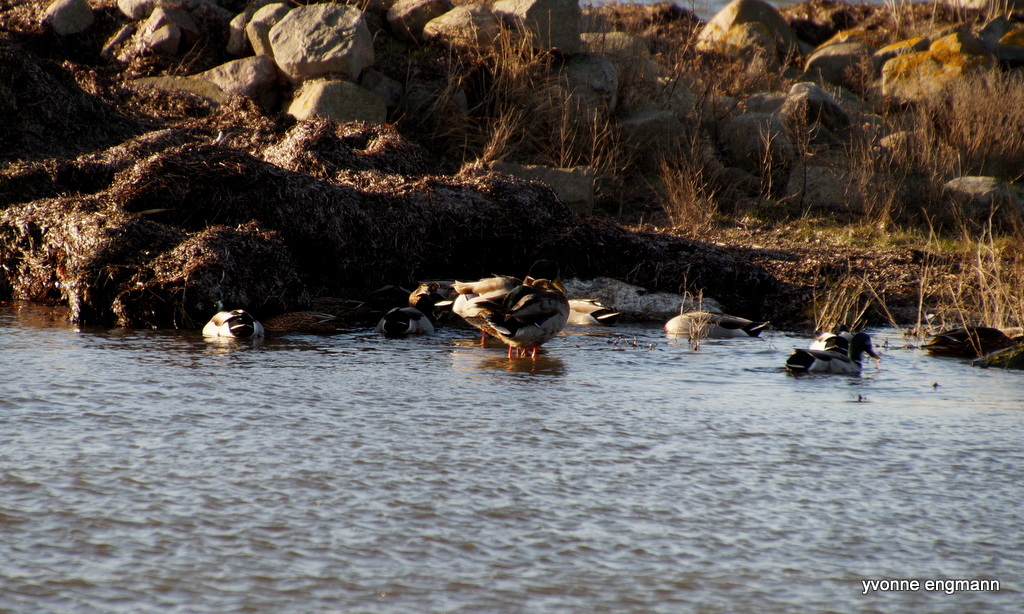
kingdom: Animalia
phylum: Chordata
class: Aves
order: Anseriformes
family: Anatidae
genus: Anas
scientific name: Anas platyrhynchos
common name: Mallard
